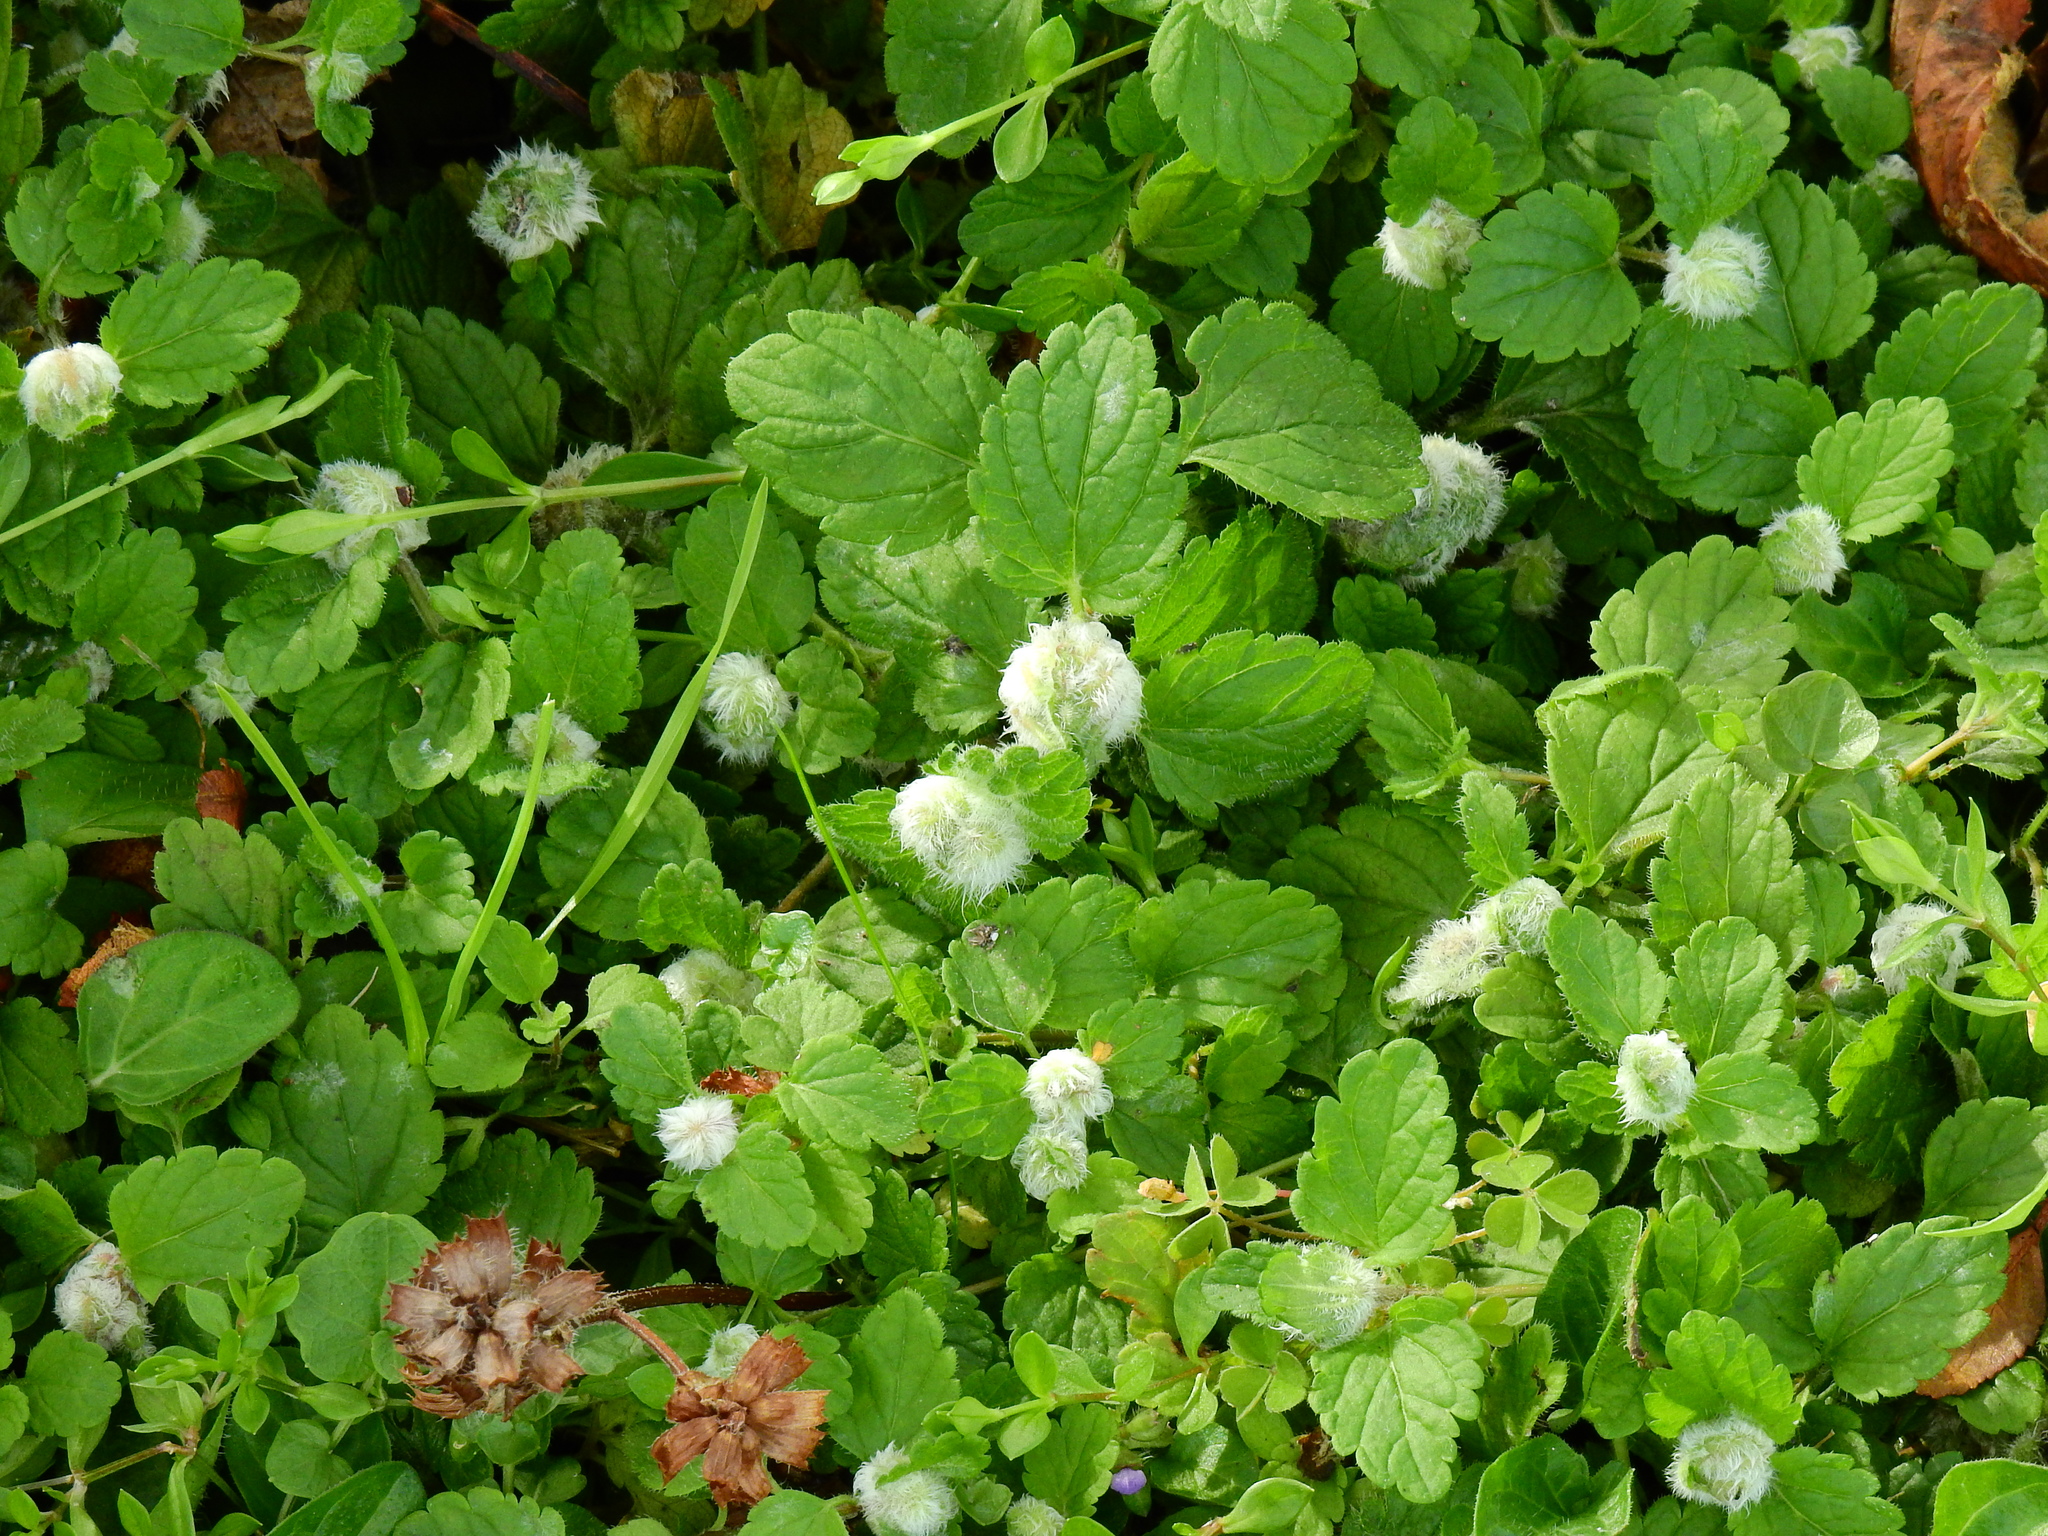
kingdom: Plantae
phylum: Tracheophyta
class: Magnoliopsida
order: Lamiales
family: Plantaginaceae
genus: Veronica
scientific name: Veronica chamaedrys
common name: Germander speedwell
